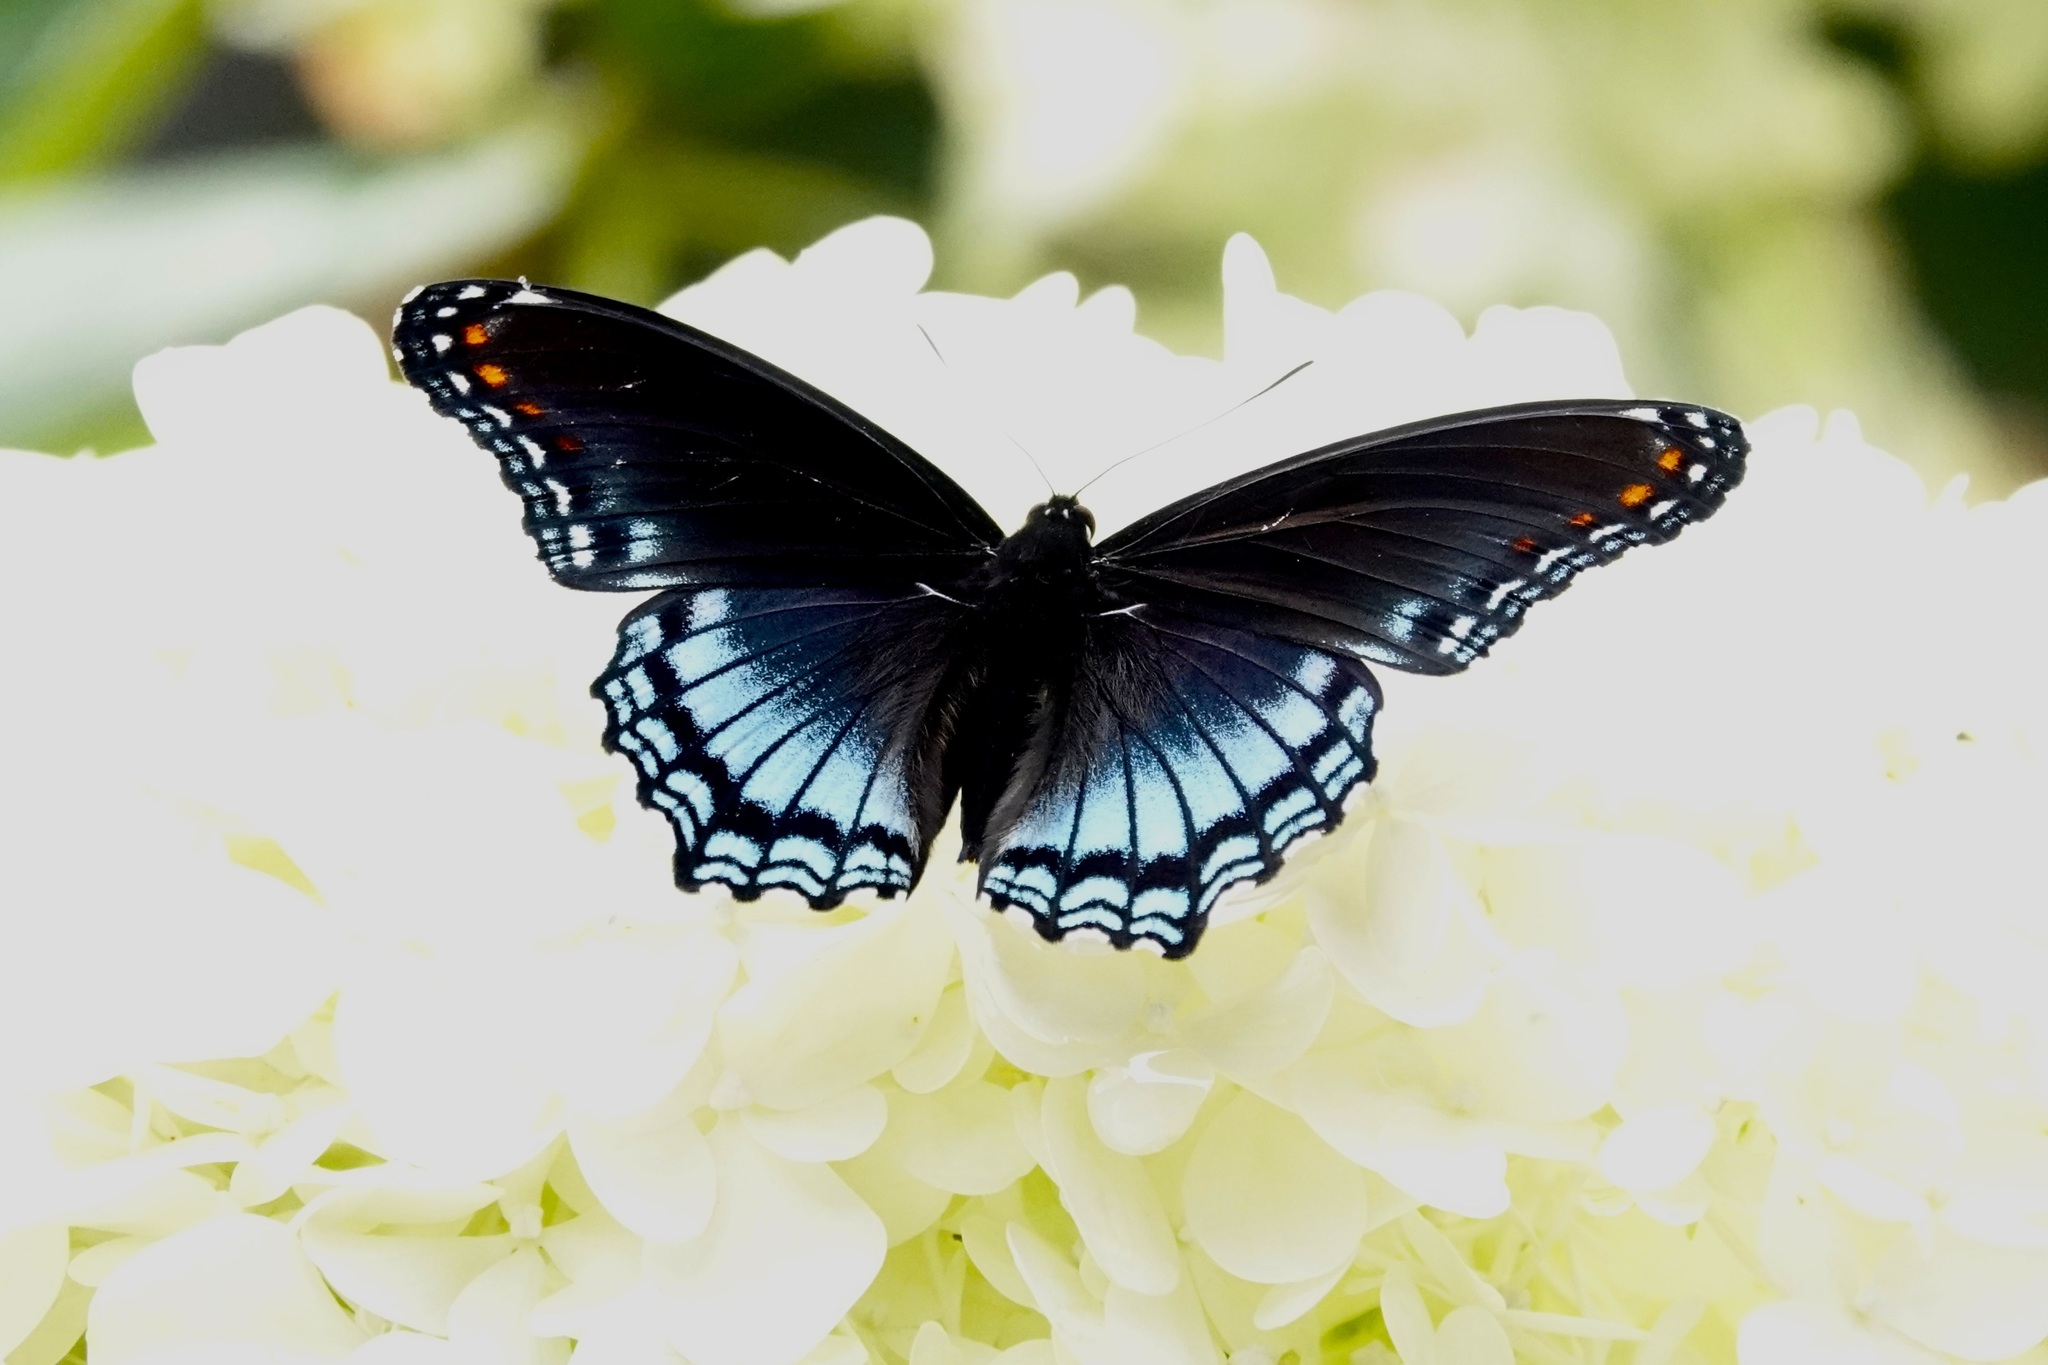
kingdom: Animalia
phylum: Arthropoda
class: Insecta
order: Lepidoptera
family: Nymphalidae
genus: Limenitis
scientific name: Limenitis astyanax
